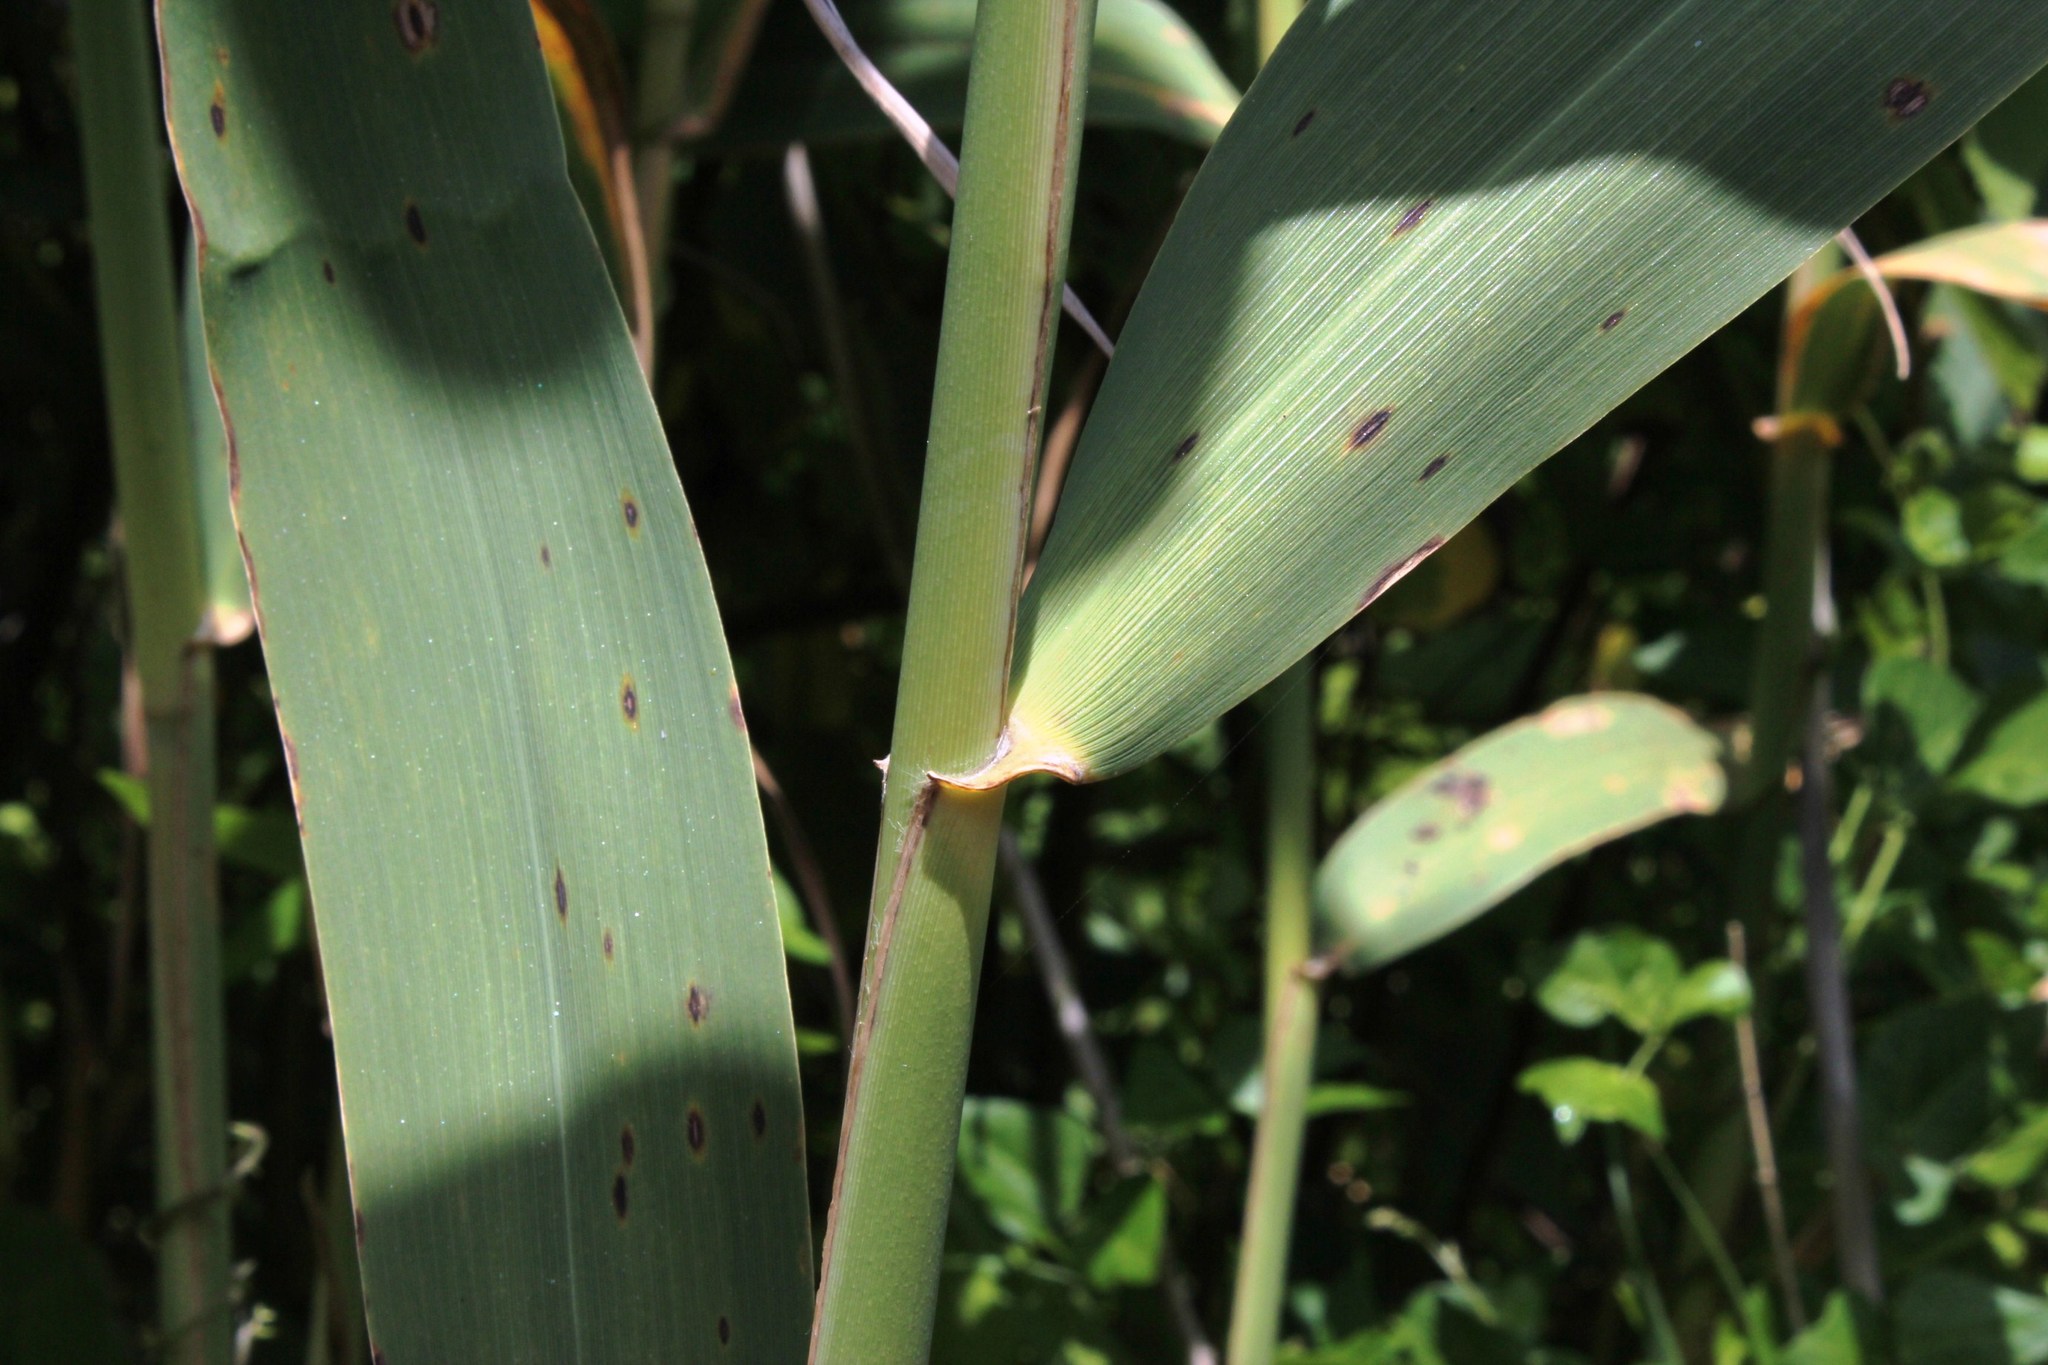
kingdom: Plantae
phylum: Tracheophyta
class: Liliopsida
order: Poales
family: Poaceae
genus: Phragmites
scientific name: Phragmites australis
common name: Common reed
